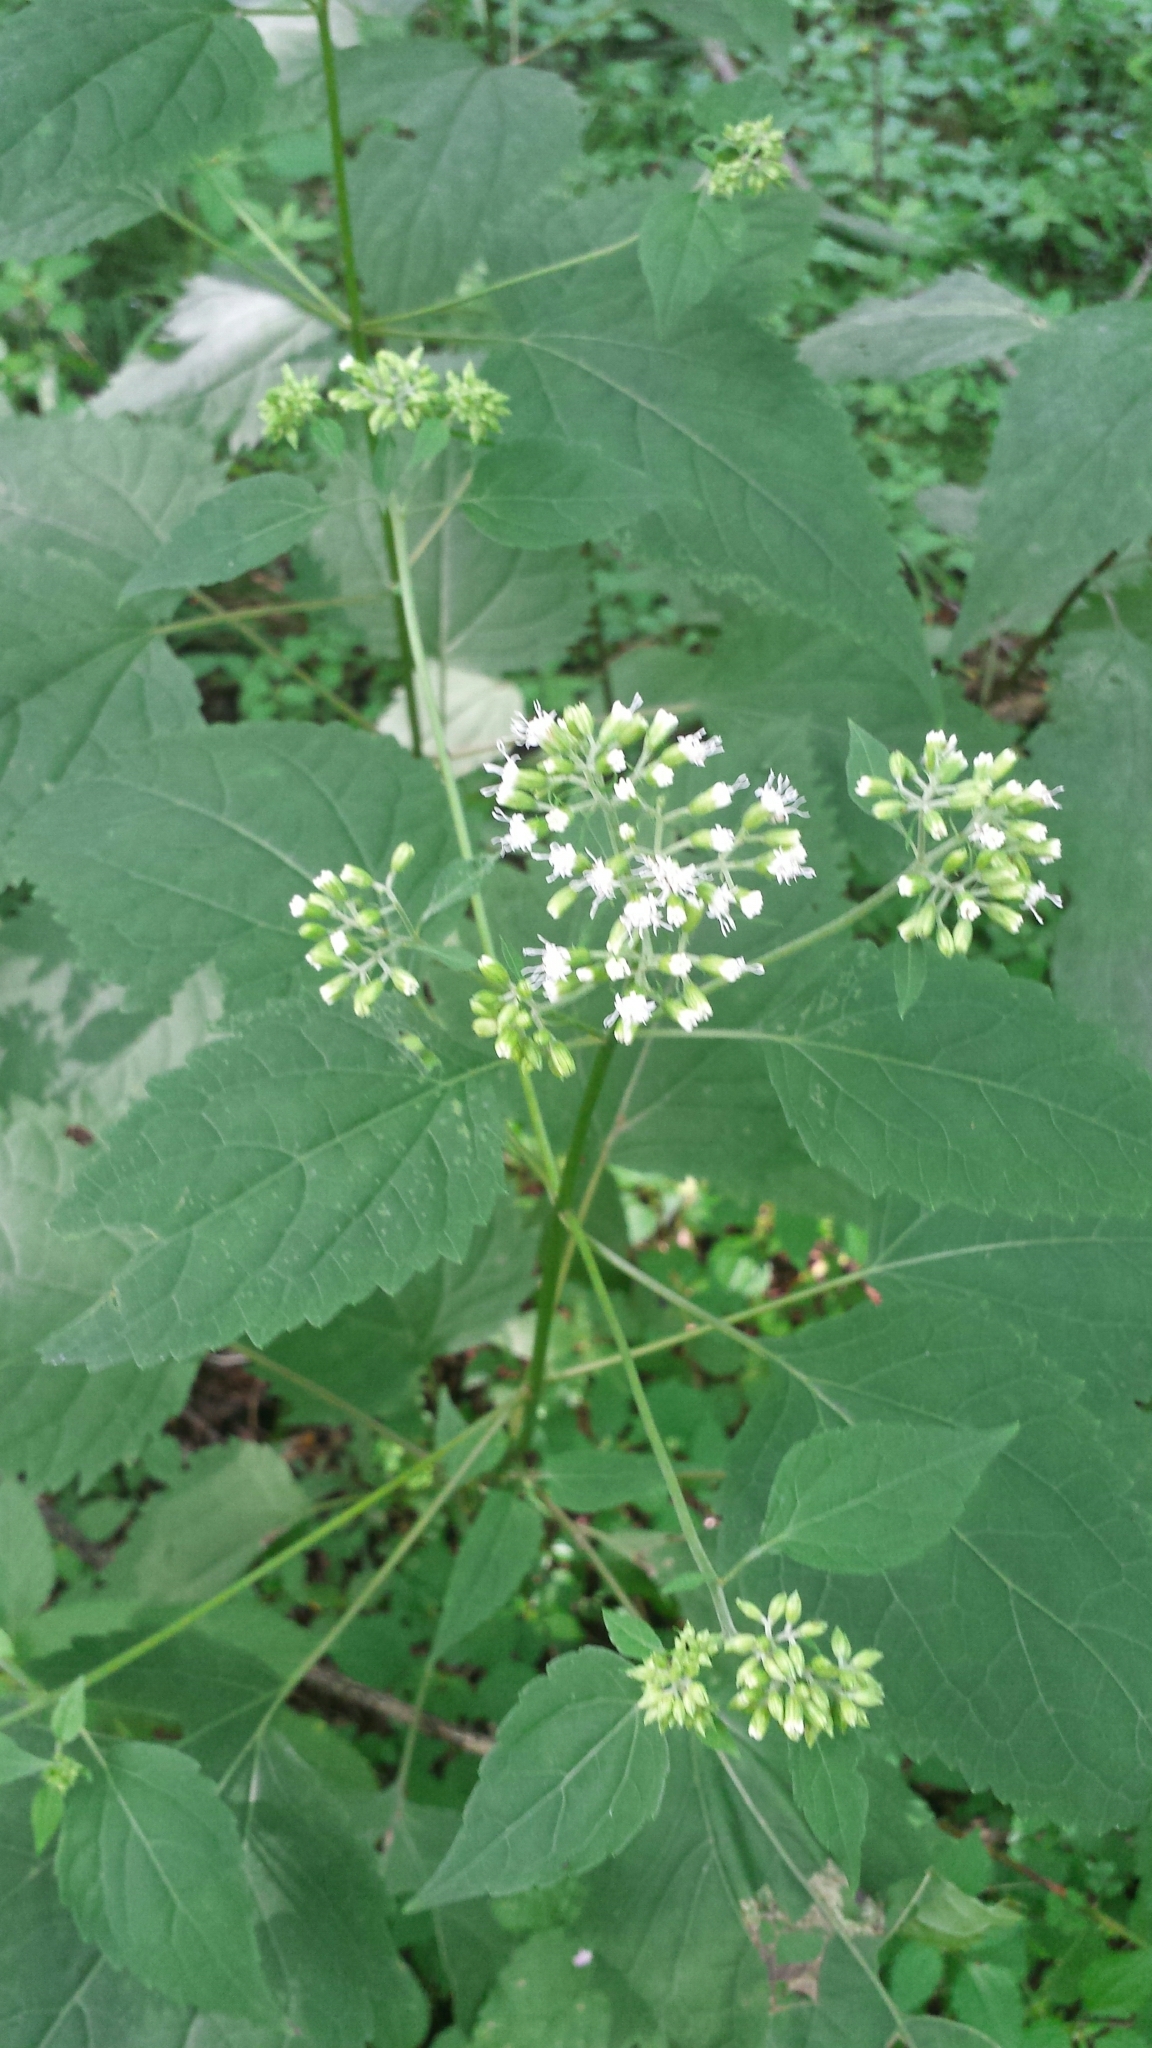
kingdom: Plantae
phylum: Tracheophyta
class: Magnoliopsida
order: Asterales
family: Asteraceae
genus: Ageratina
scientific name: Ageratina altissima
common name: White snakeroot
